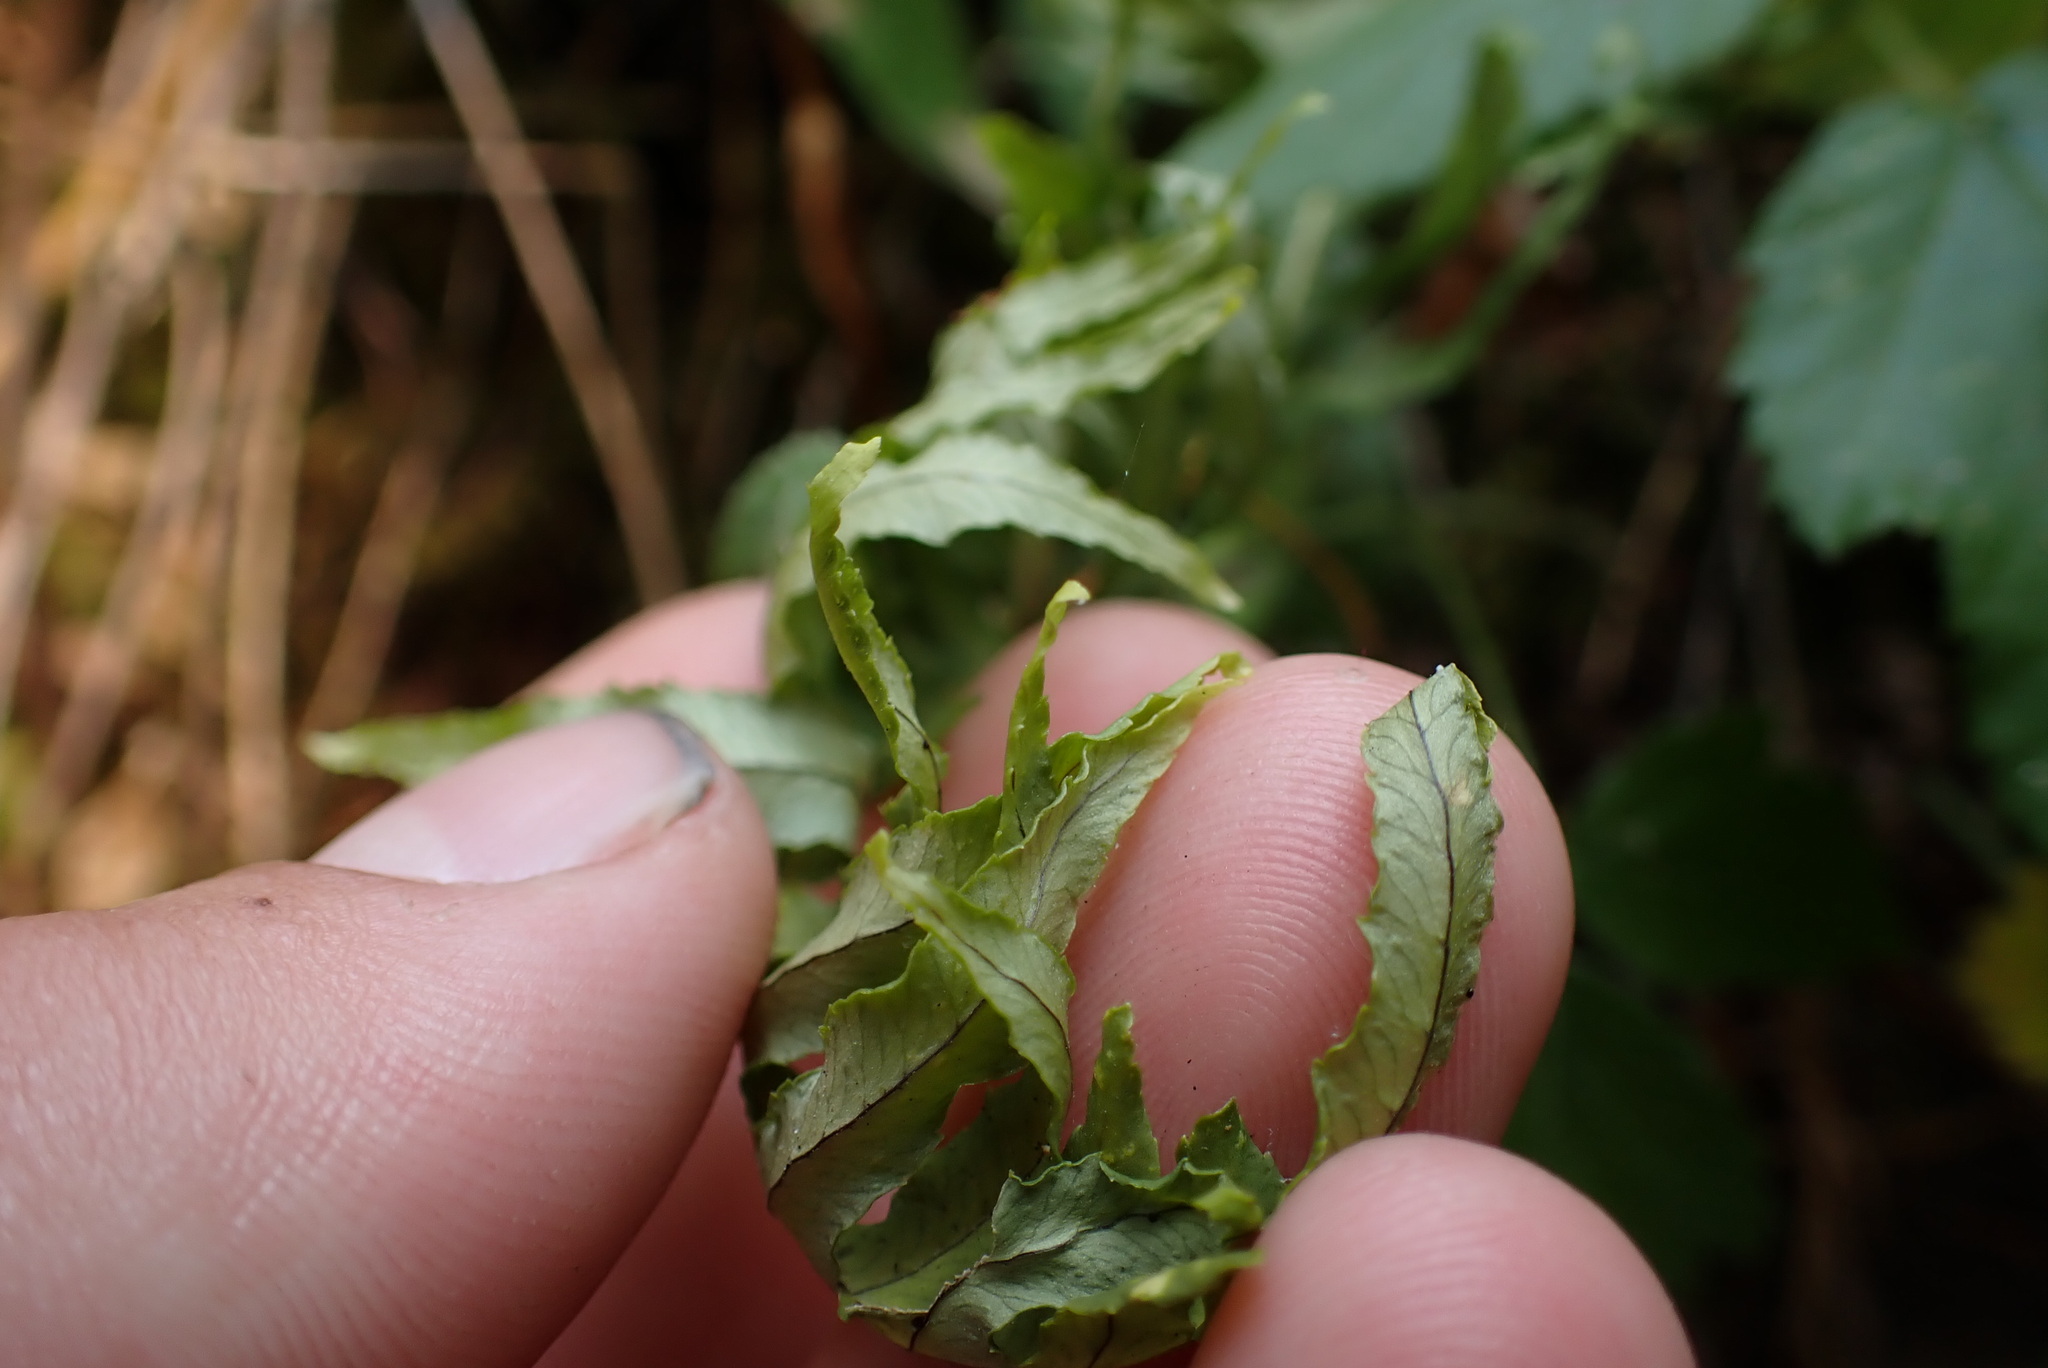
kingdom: Plantae
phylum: Tracheophyta
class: Polypodiopsida
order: Polypodiales
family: Polypodiaceae
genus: Polypodium
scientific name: Polypodium glycyrrhiza
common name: Licorice fern
